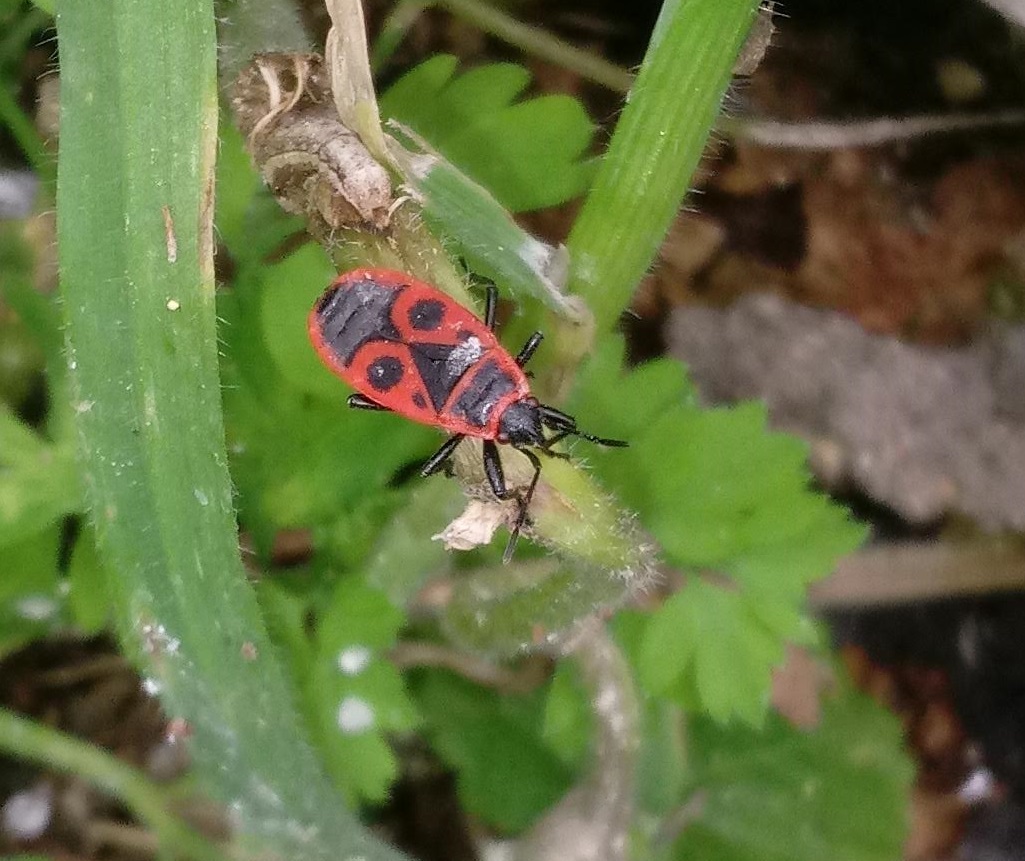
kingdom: Animalia
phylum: Arthropoda
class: Insecta
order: Hemiptera
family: Pyrrhocoridae
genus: Pyrrhocoris
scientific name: Pyrrhocoris apterus
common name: Firebug
